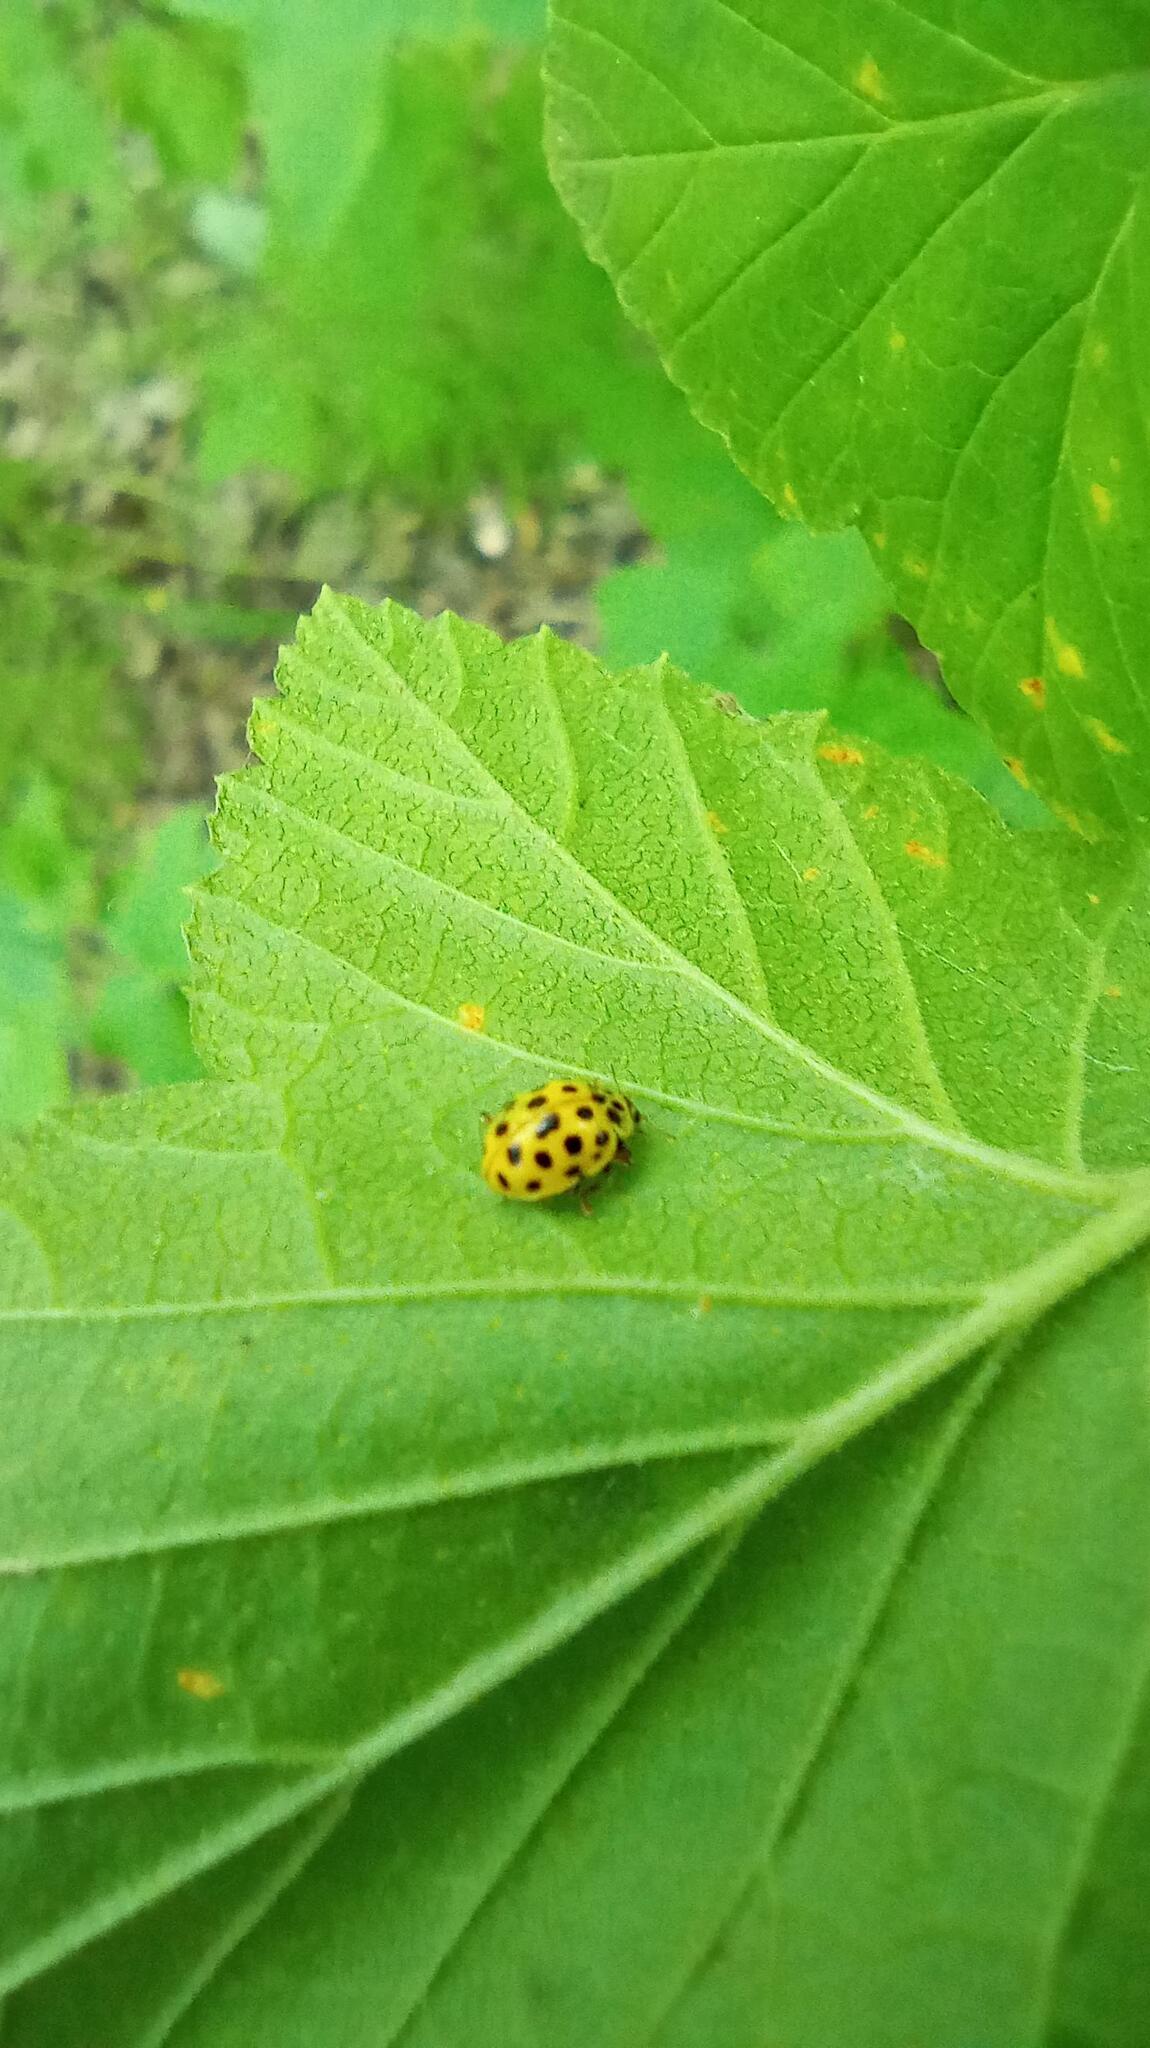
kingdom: Animalia
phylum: Arthropoda
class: Insecta
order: Coleoptera
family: Coccinellidae
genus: Psyllobora
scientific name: Psyllobora vigintiduopunctata
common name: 22-spot ladybird
